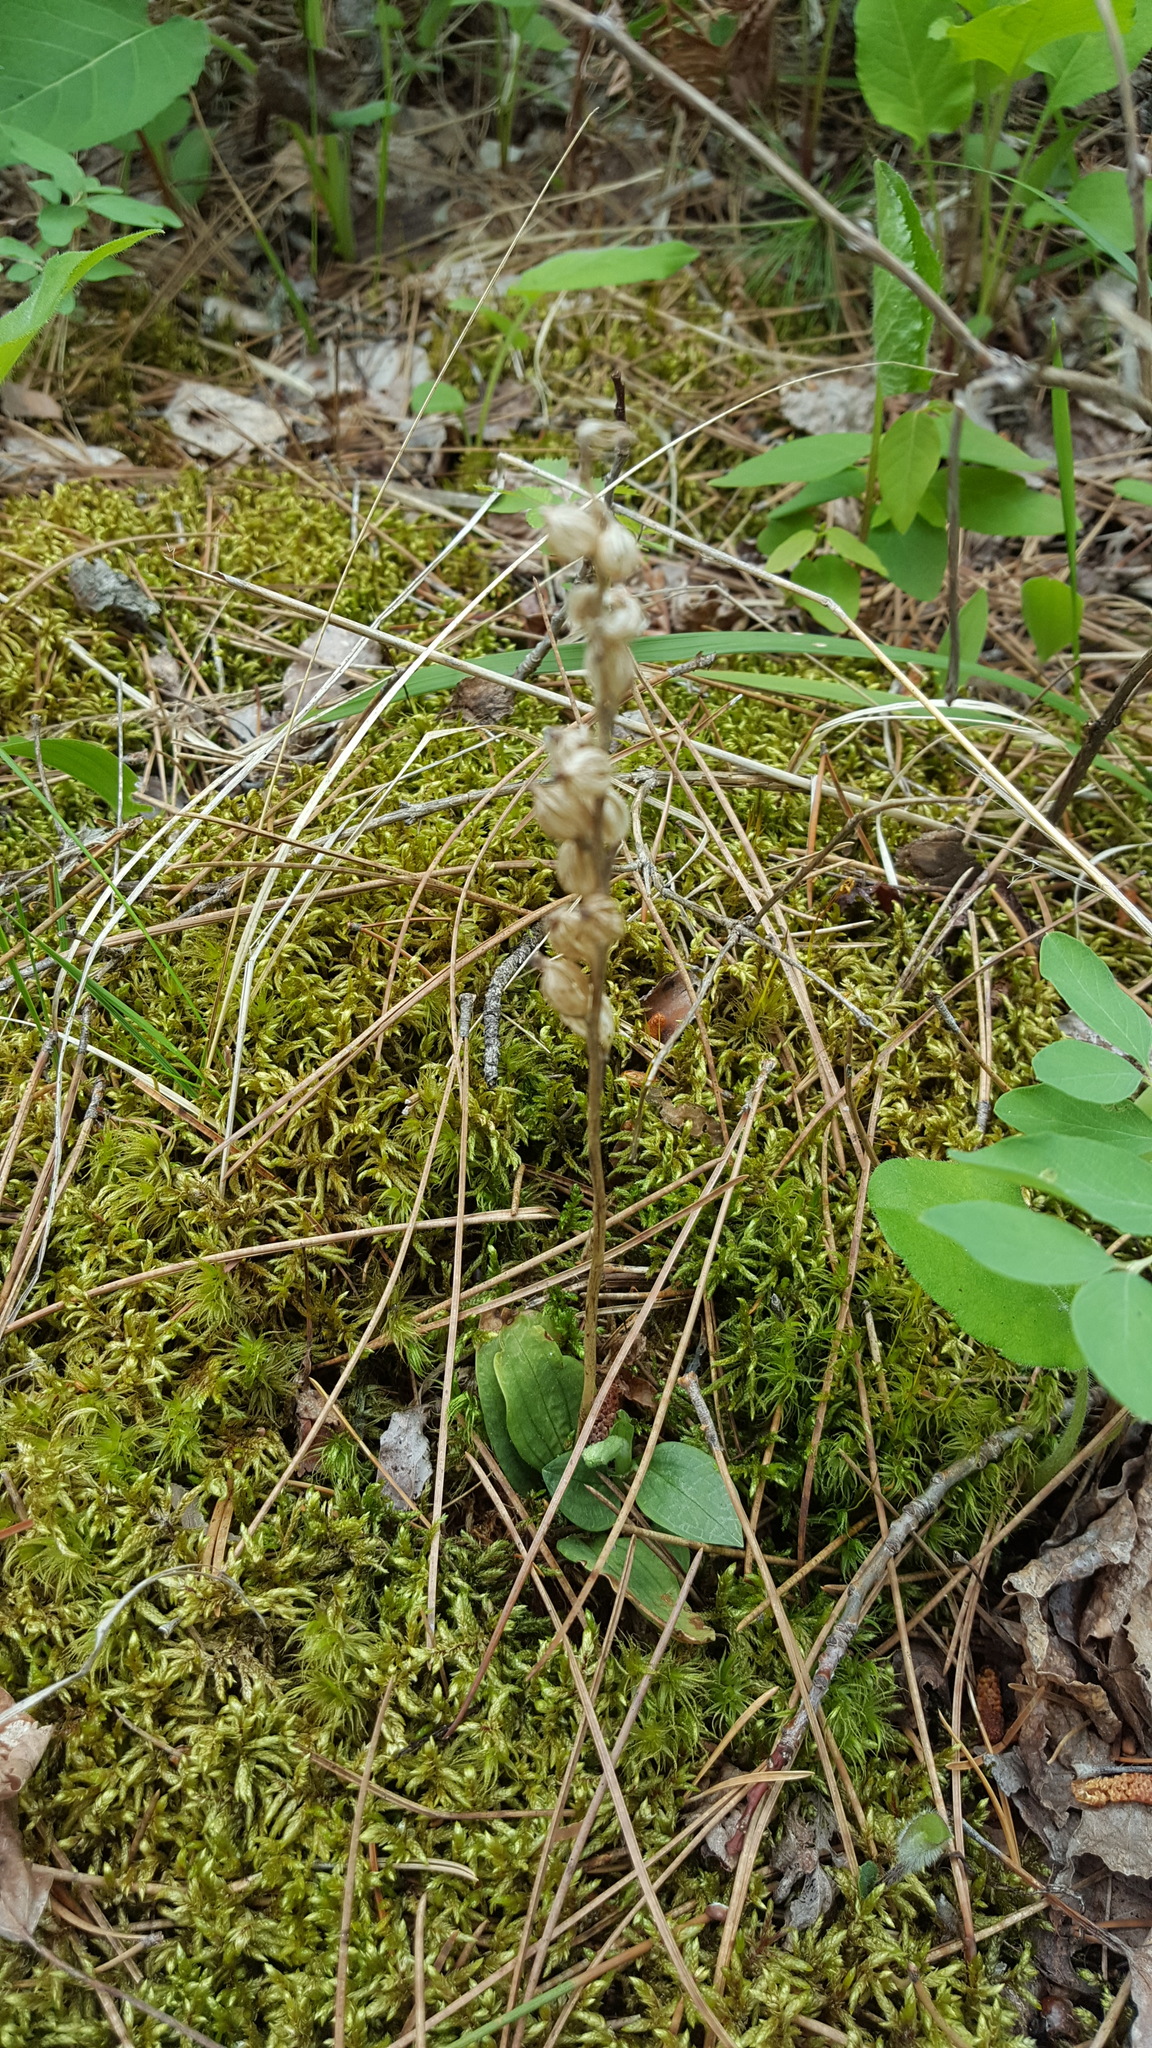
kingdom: Plantae
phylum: Tracheophyta
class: Liliopsida
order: Asparagales
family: Orchidaceae
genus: Goodyera
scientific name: Goodyera tesselata
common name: Checkered rattlesnake-plantain
